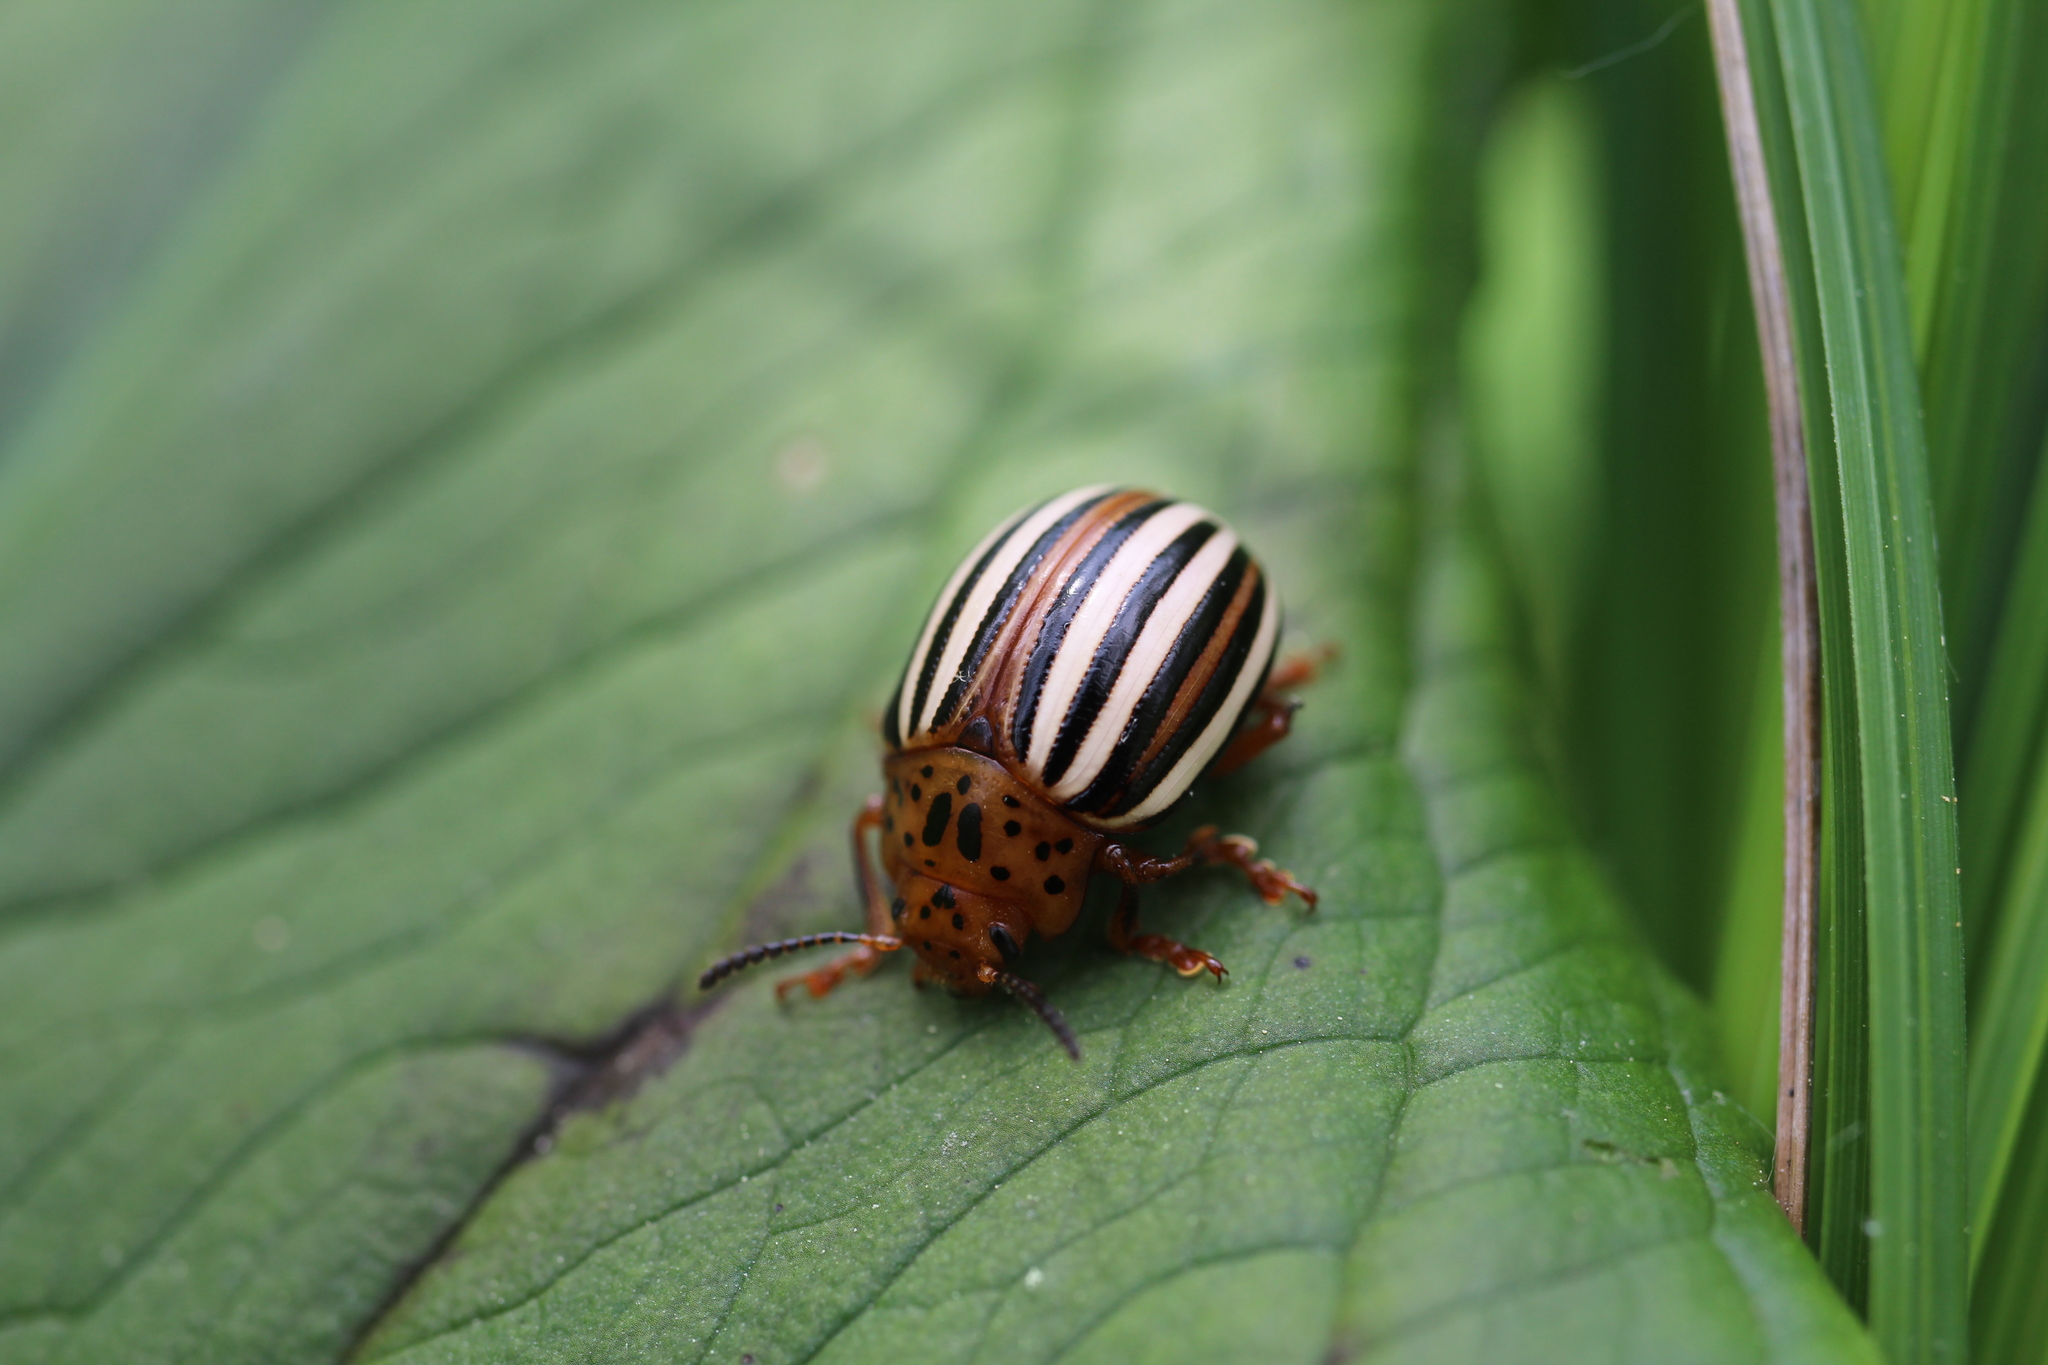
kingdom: Animalia
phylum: Arthropoda
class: Insecta
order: Coleoptera
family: Chrysomelidae
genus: Leptinotarsa
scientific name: Leptinotarsa juncta
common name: False potato beetle
